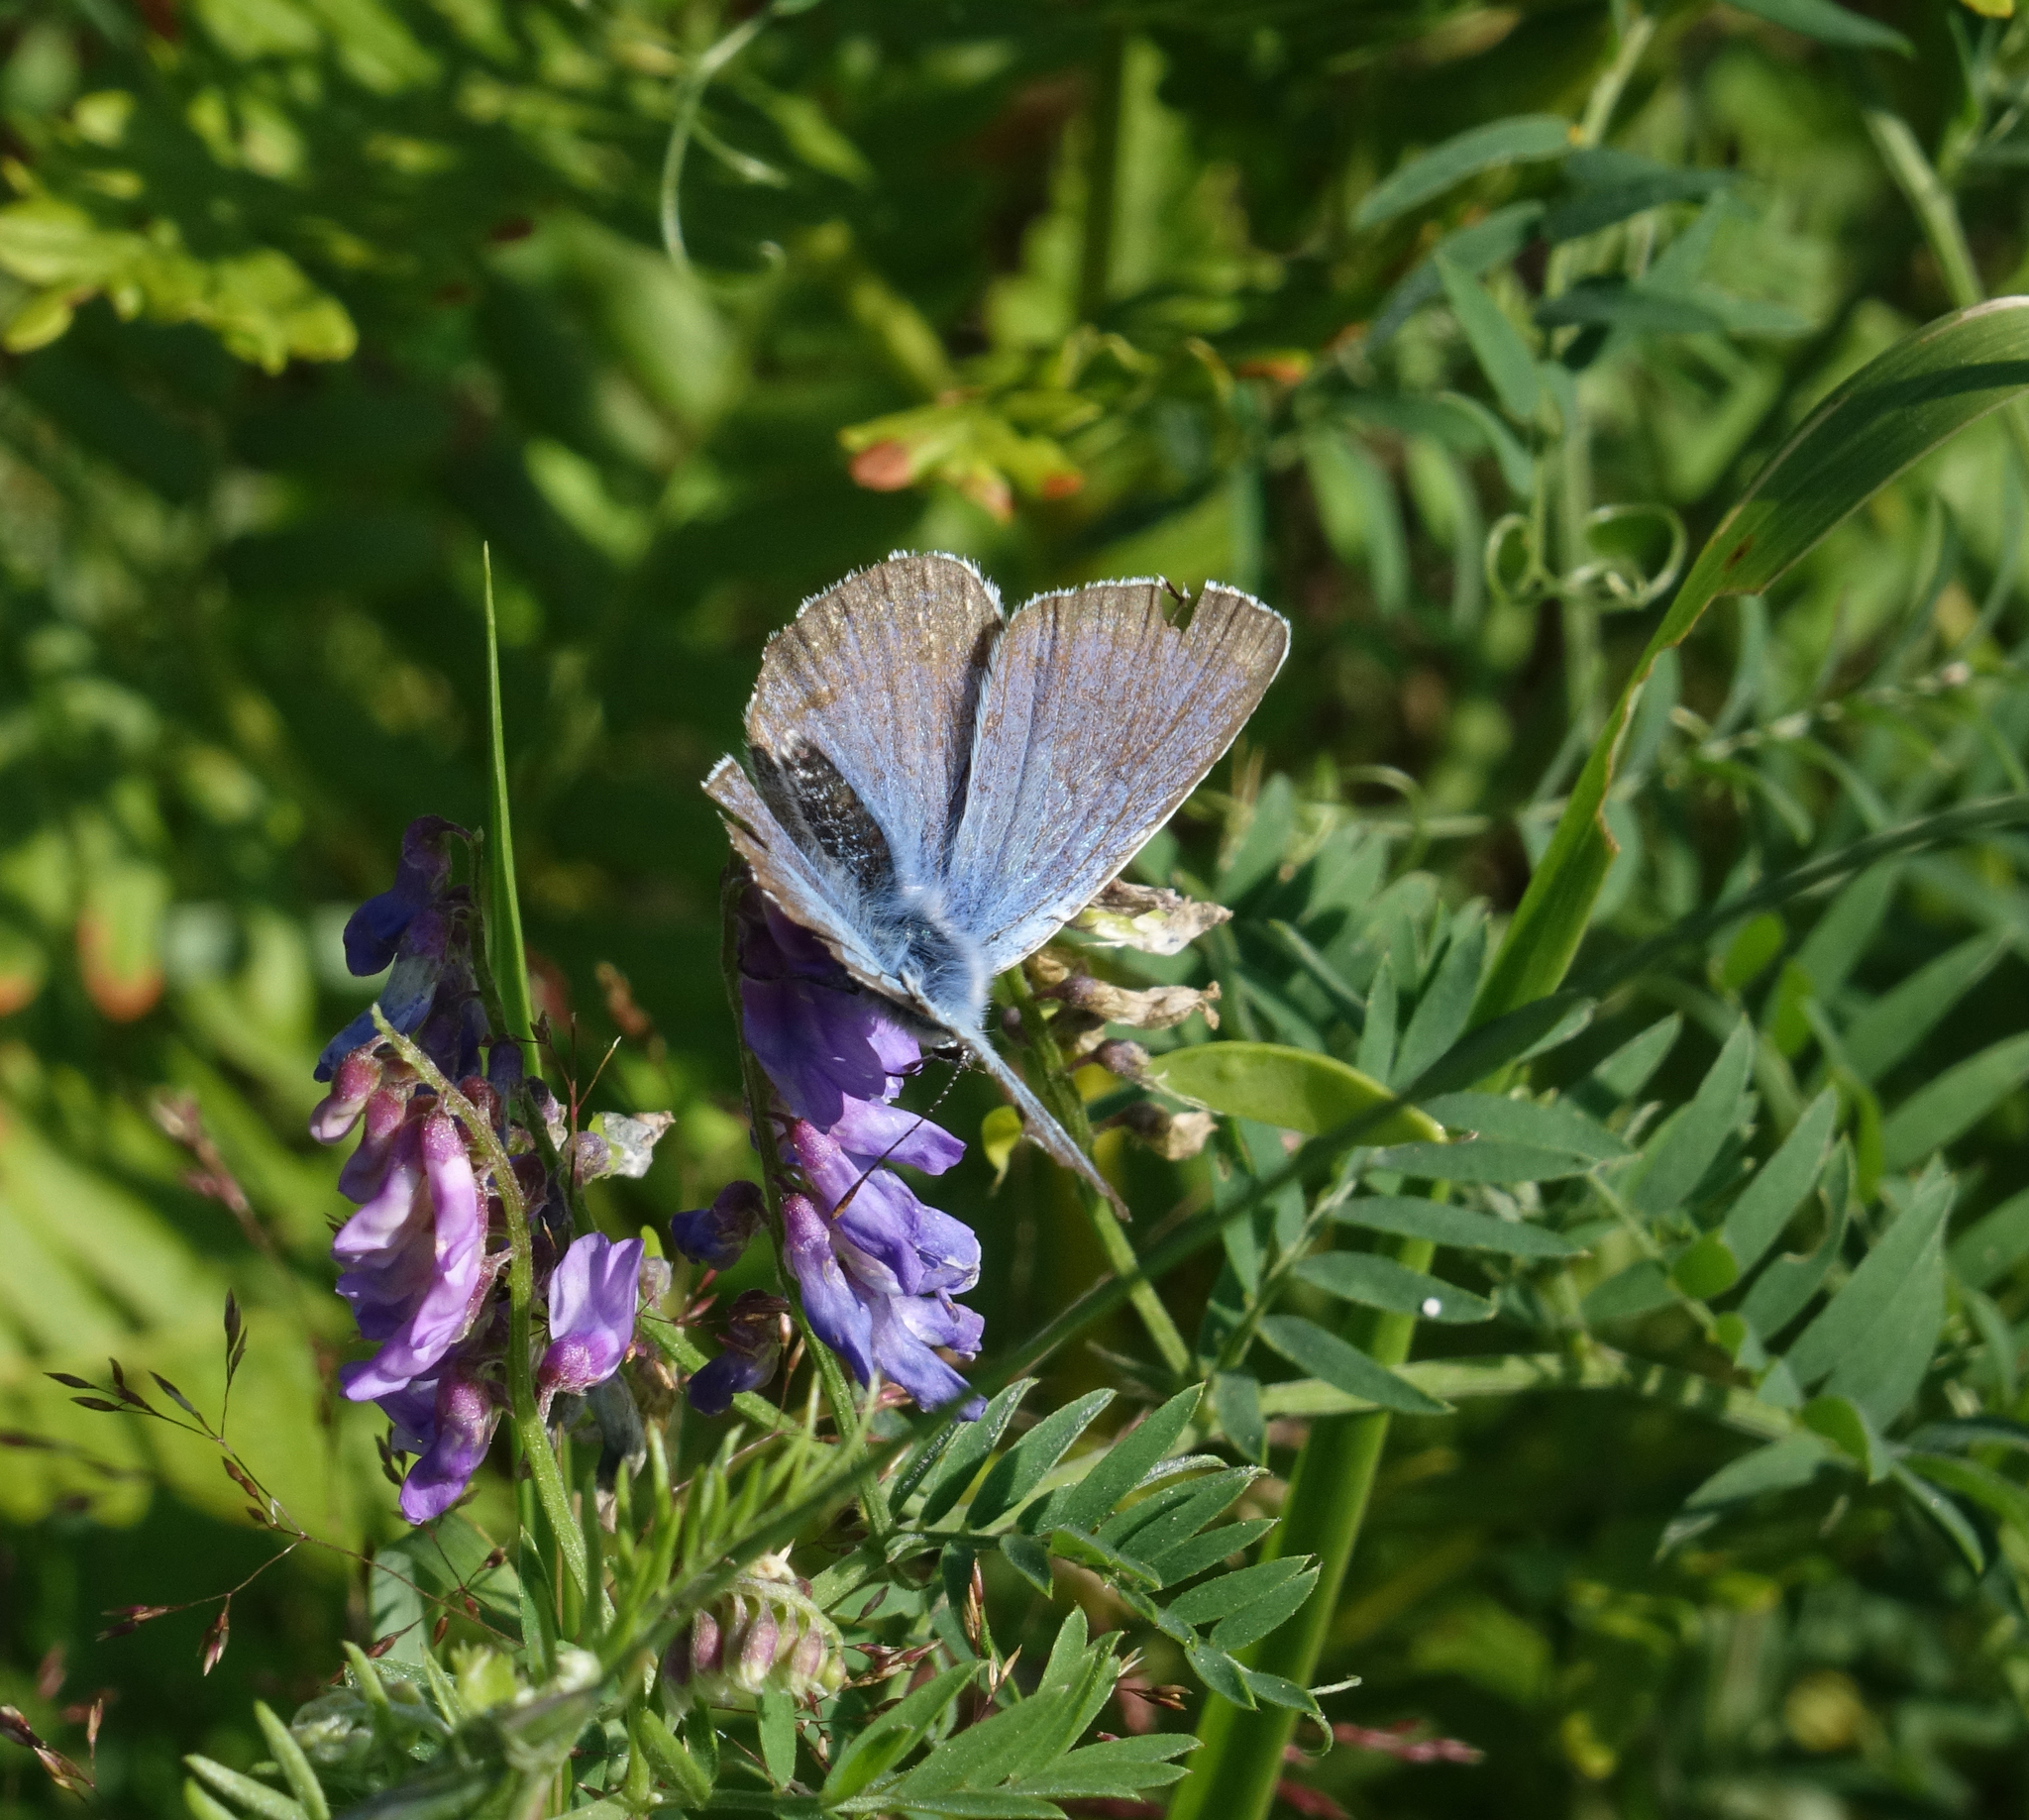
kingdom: Plantae
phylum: Tracheophyta
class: Magnoliopsida
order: Fabales
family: Fabaceae
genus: Vicia
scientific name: Vicia cracca
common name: Bird vetch
